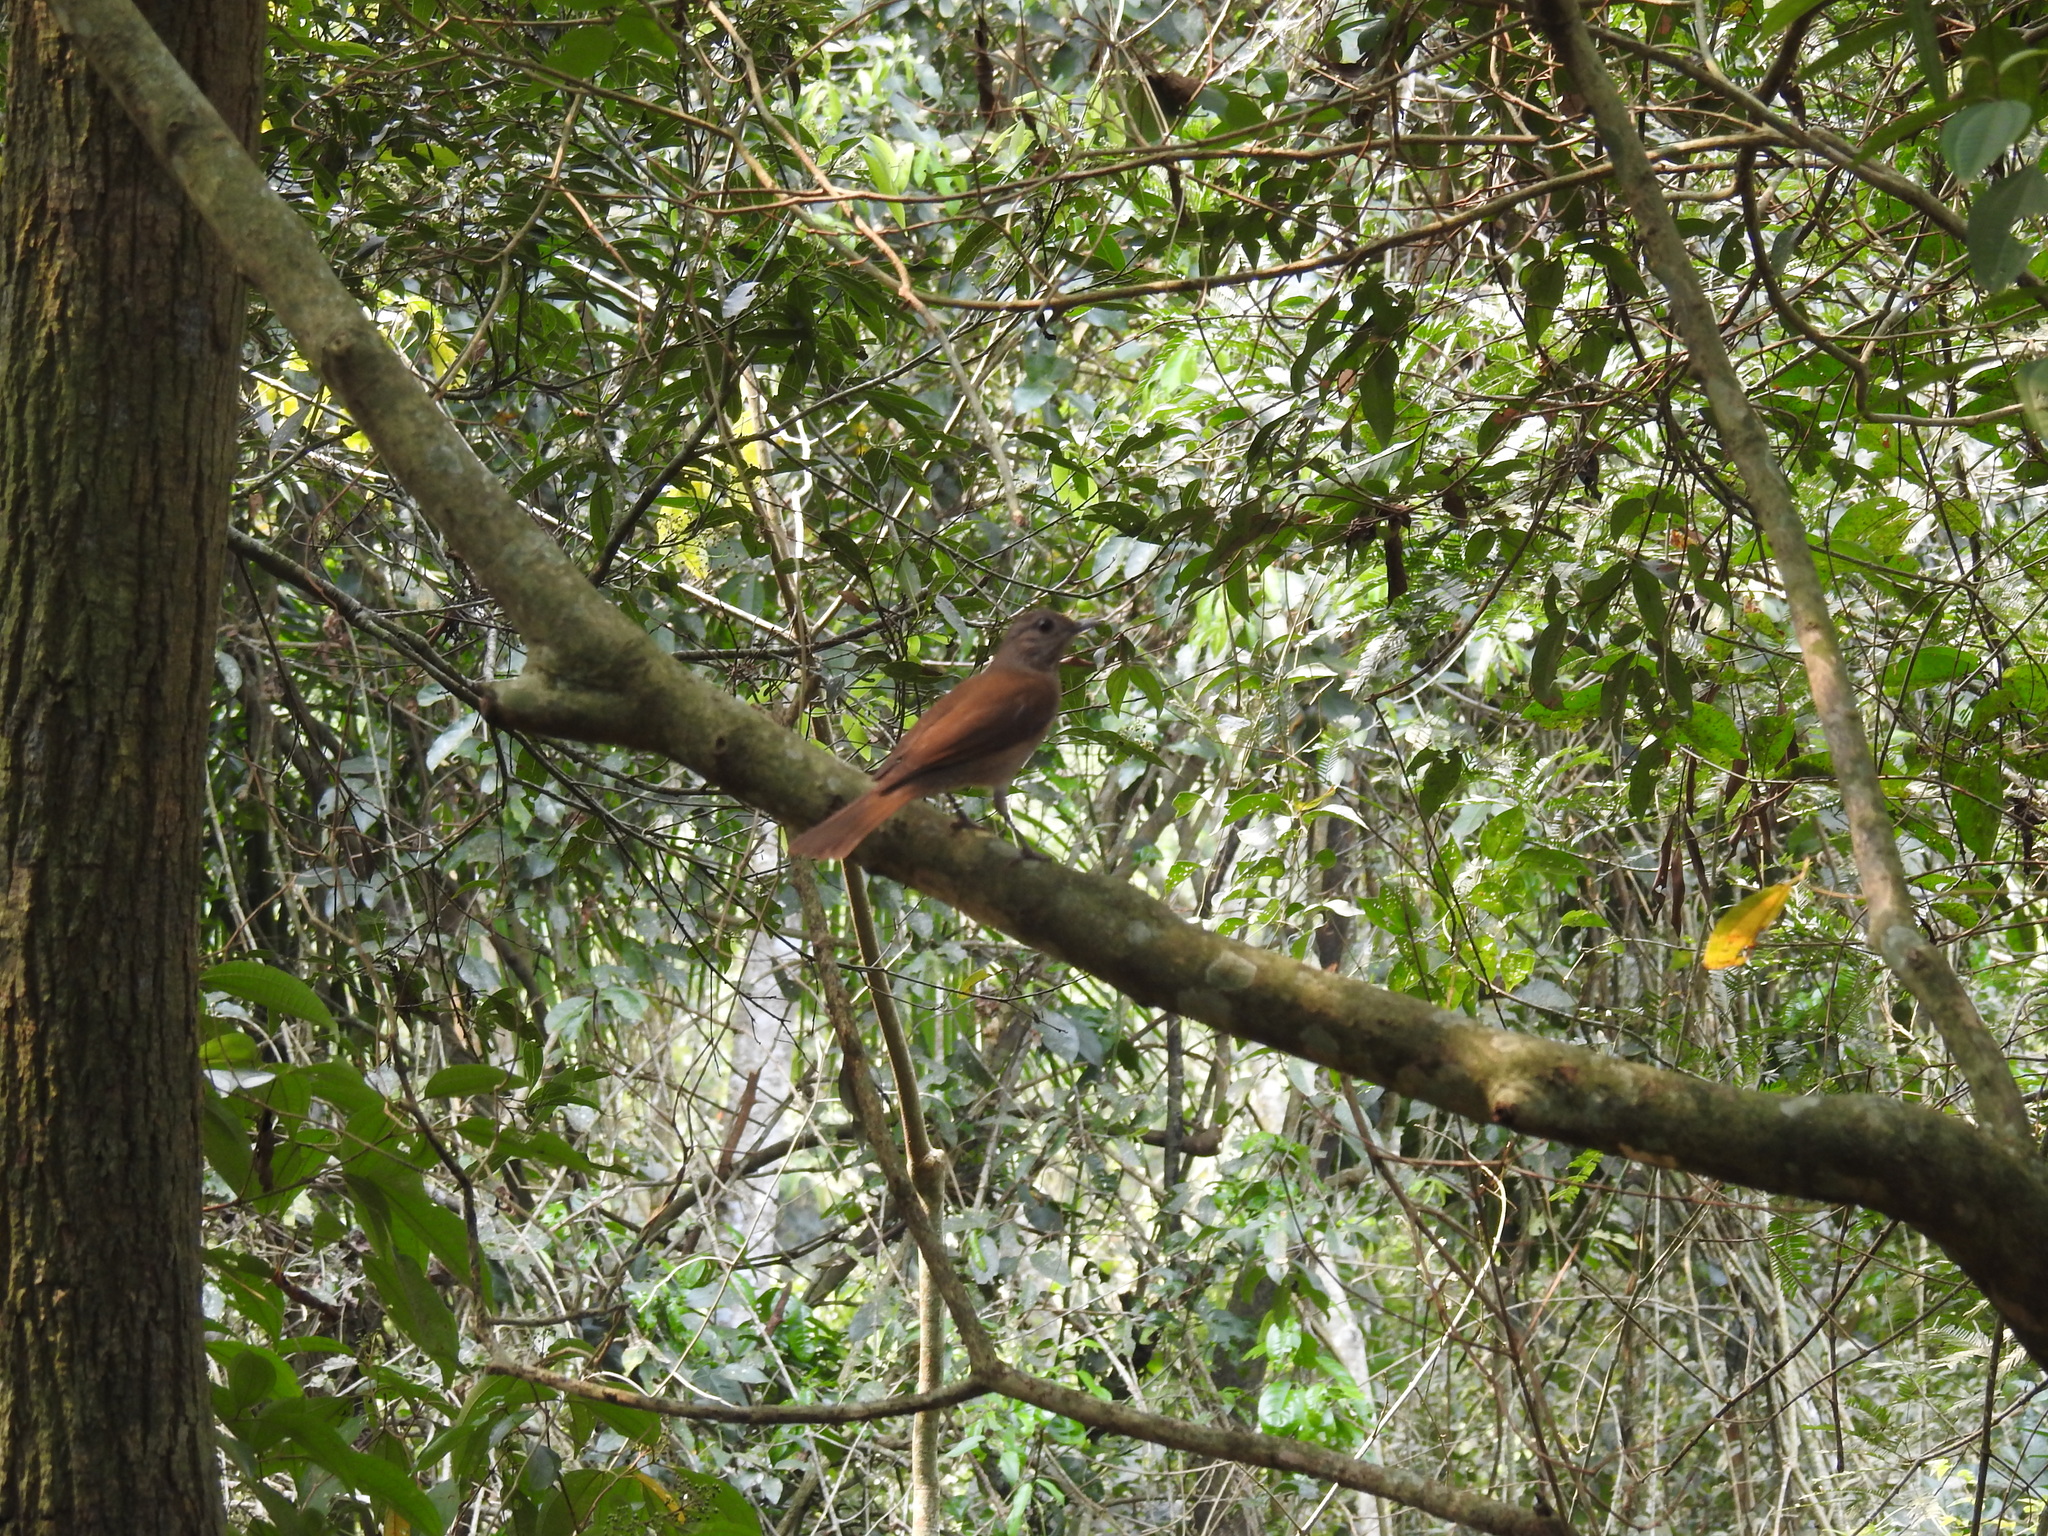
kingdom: Animalia
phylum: Chordata
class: Aves
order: Passeriformes
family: Turdidae
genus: Turdus
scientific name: Turdus leucomelas
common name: Pale-breasted thrush
